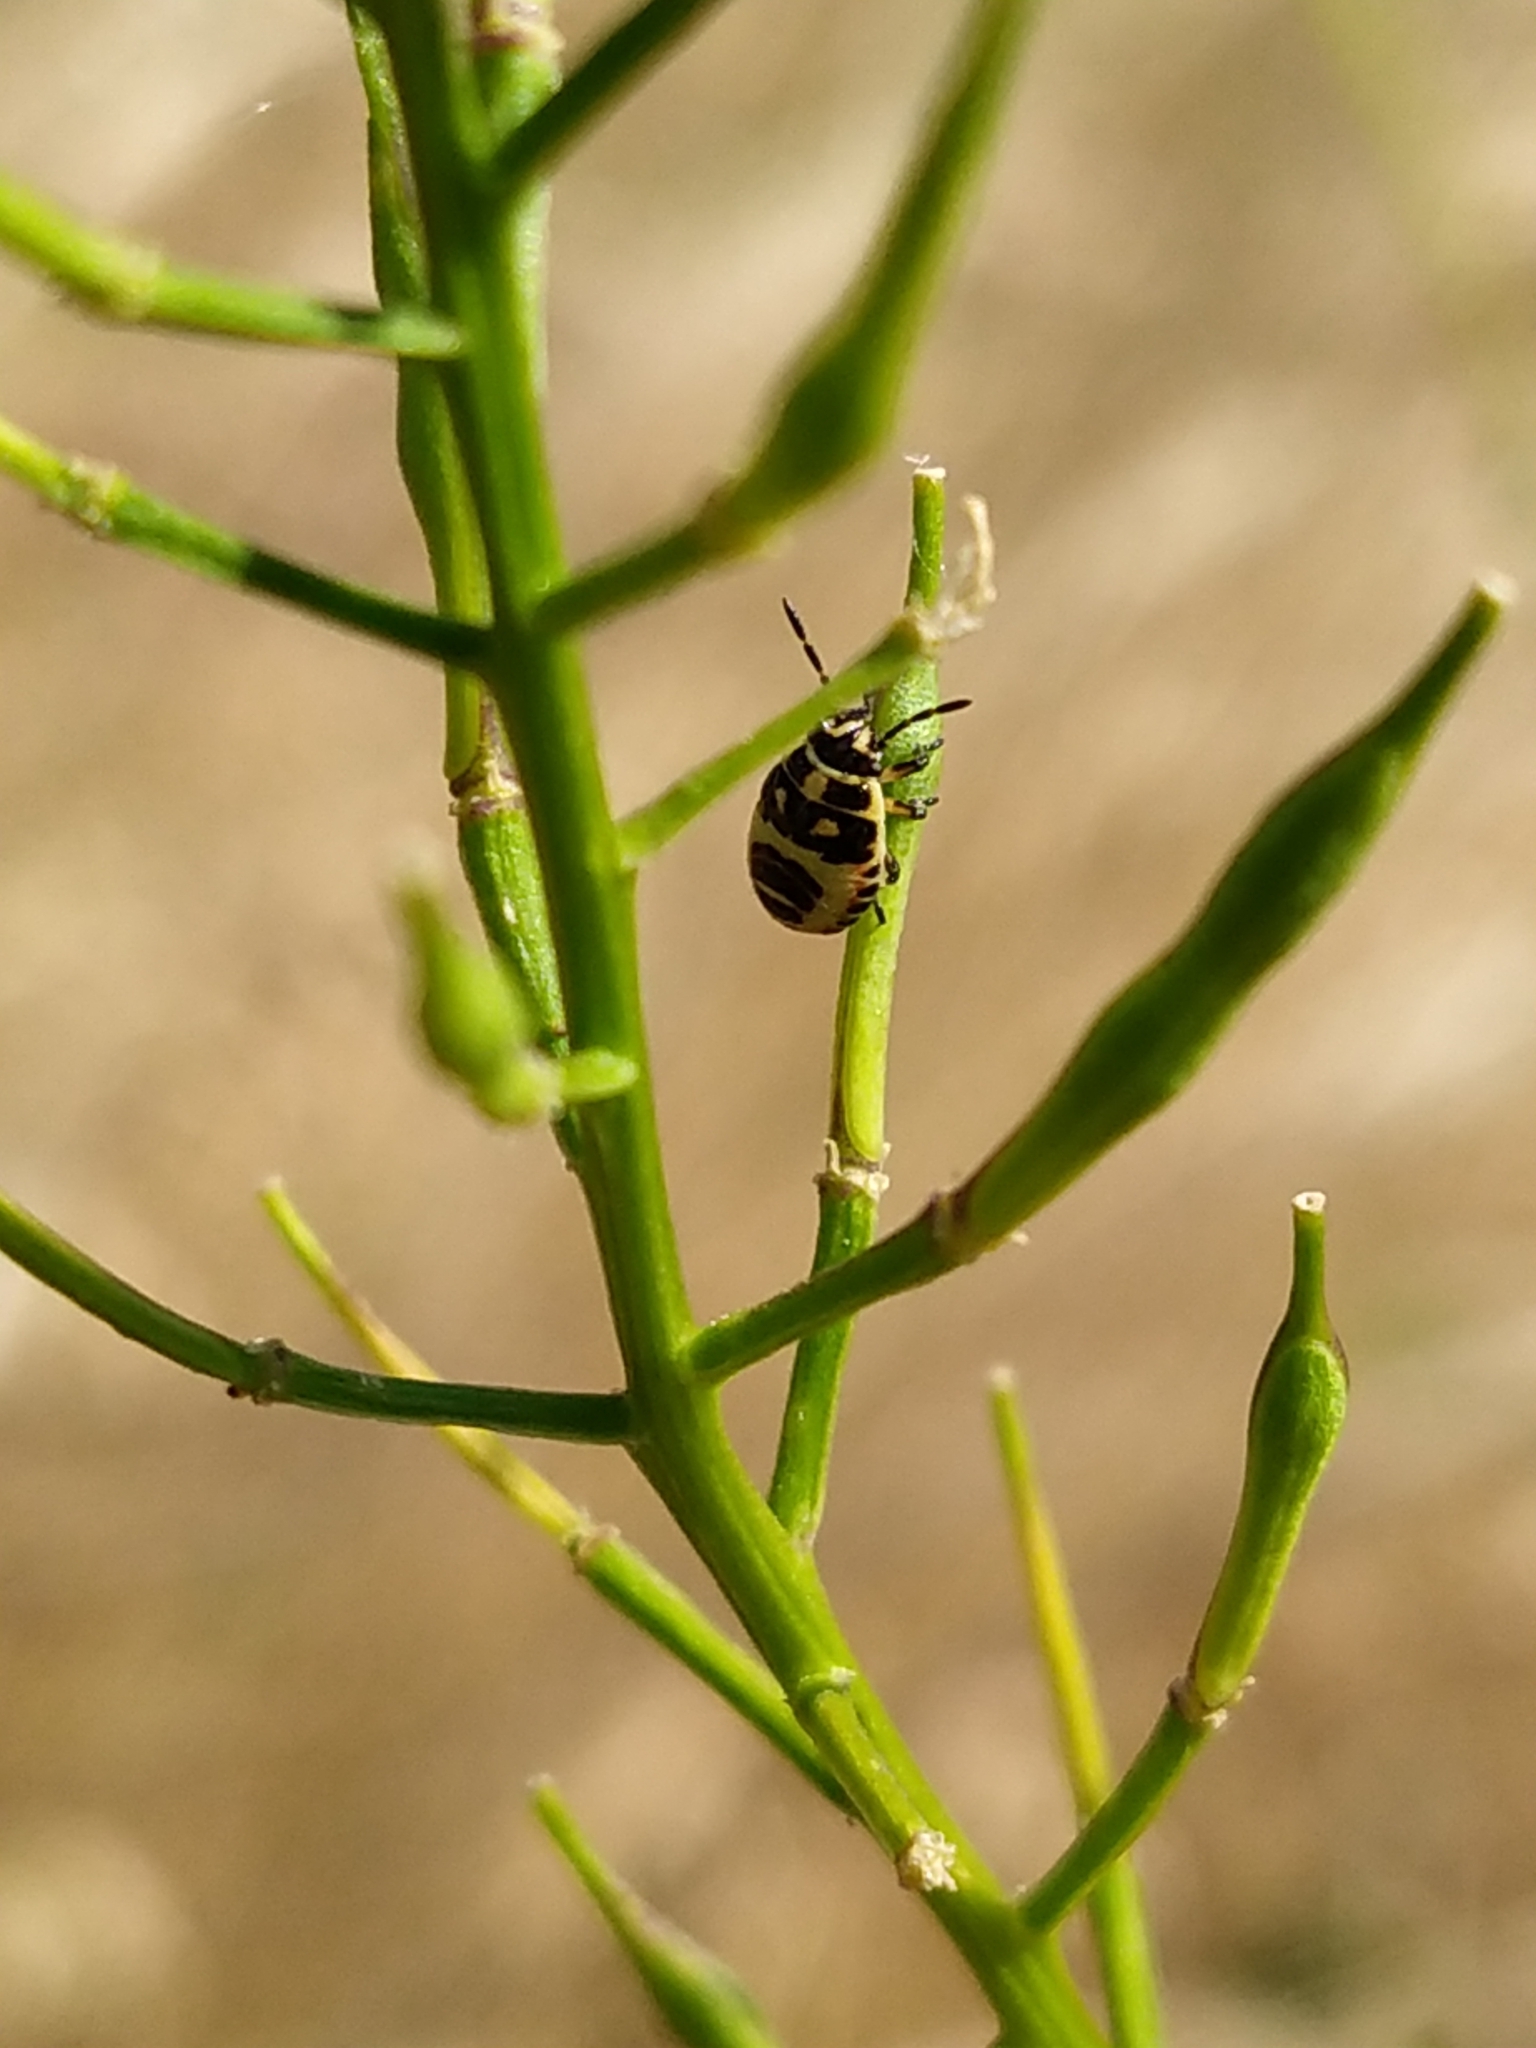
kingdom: Animalia
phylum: Arthropoda
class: Insecta
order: Hemiptera
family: Pentatomidae
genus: Eurydema
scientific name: Eurydema oleracea
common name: Cabbage bug
